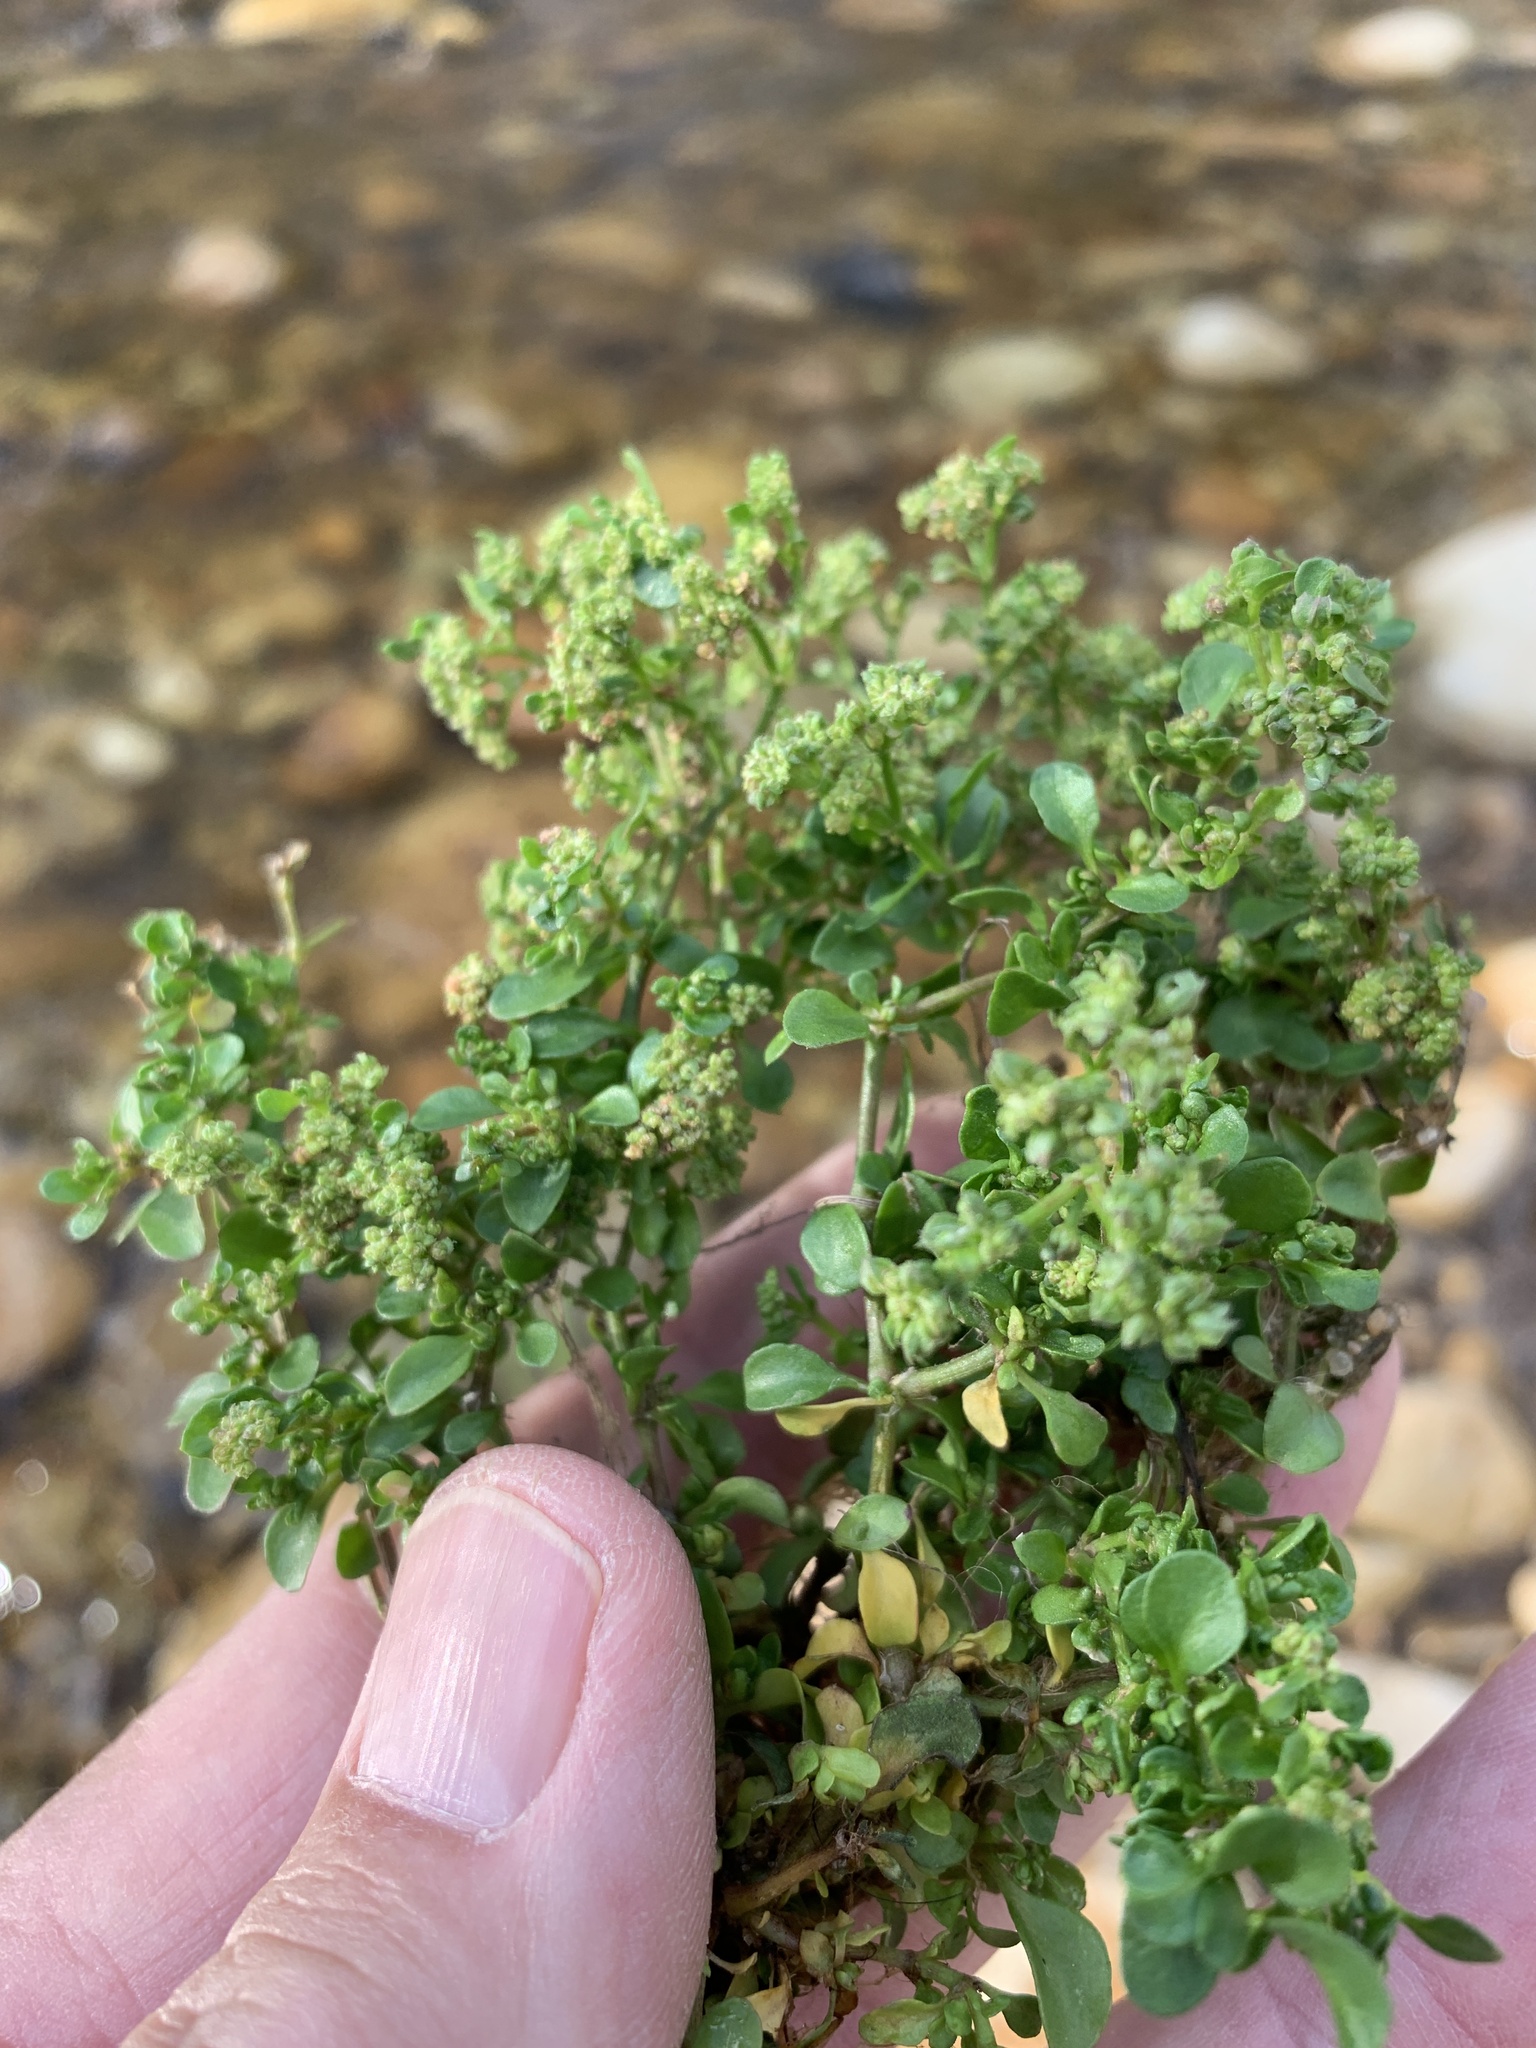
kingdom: Plantae
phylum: Tracheophyta
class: Magnoliopsida
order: Caryophyllales
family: Caryophyllaceae
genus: Polycarpon
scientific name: Polycarpon tetraphyllum
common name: Four-leaved all-seed
